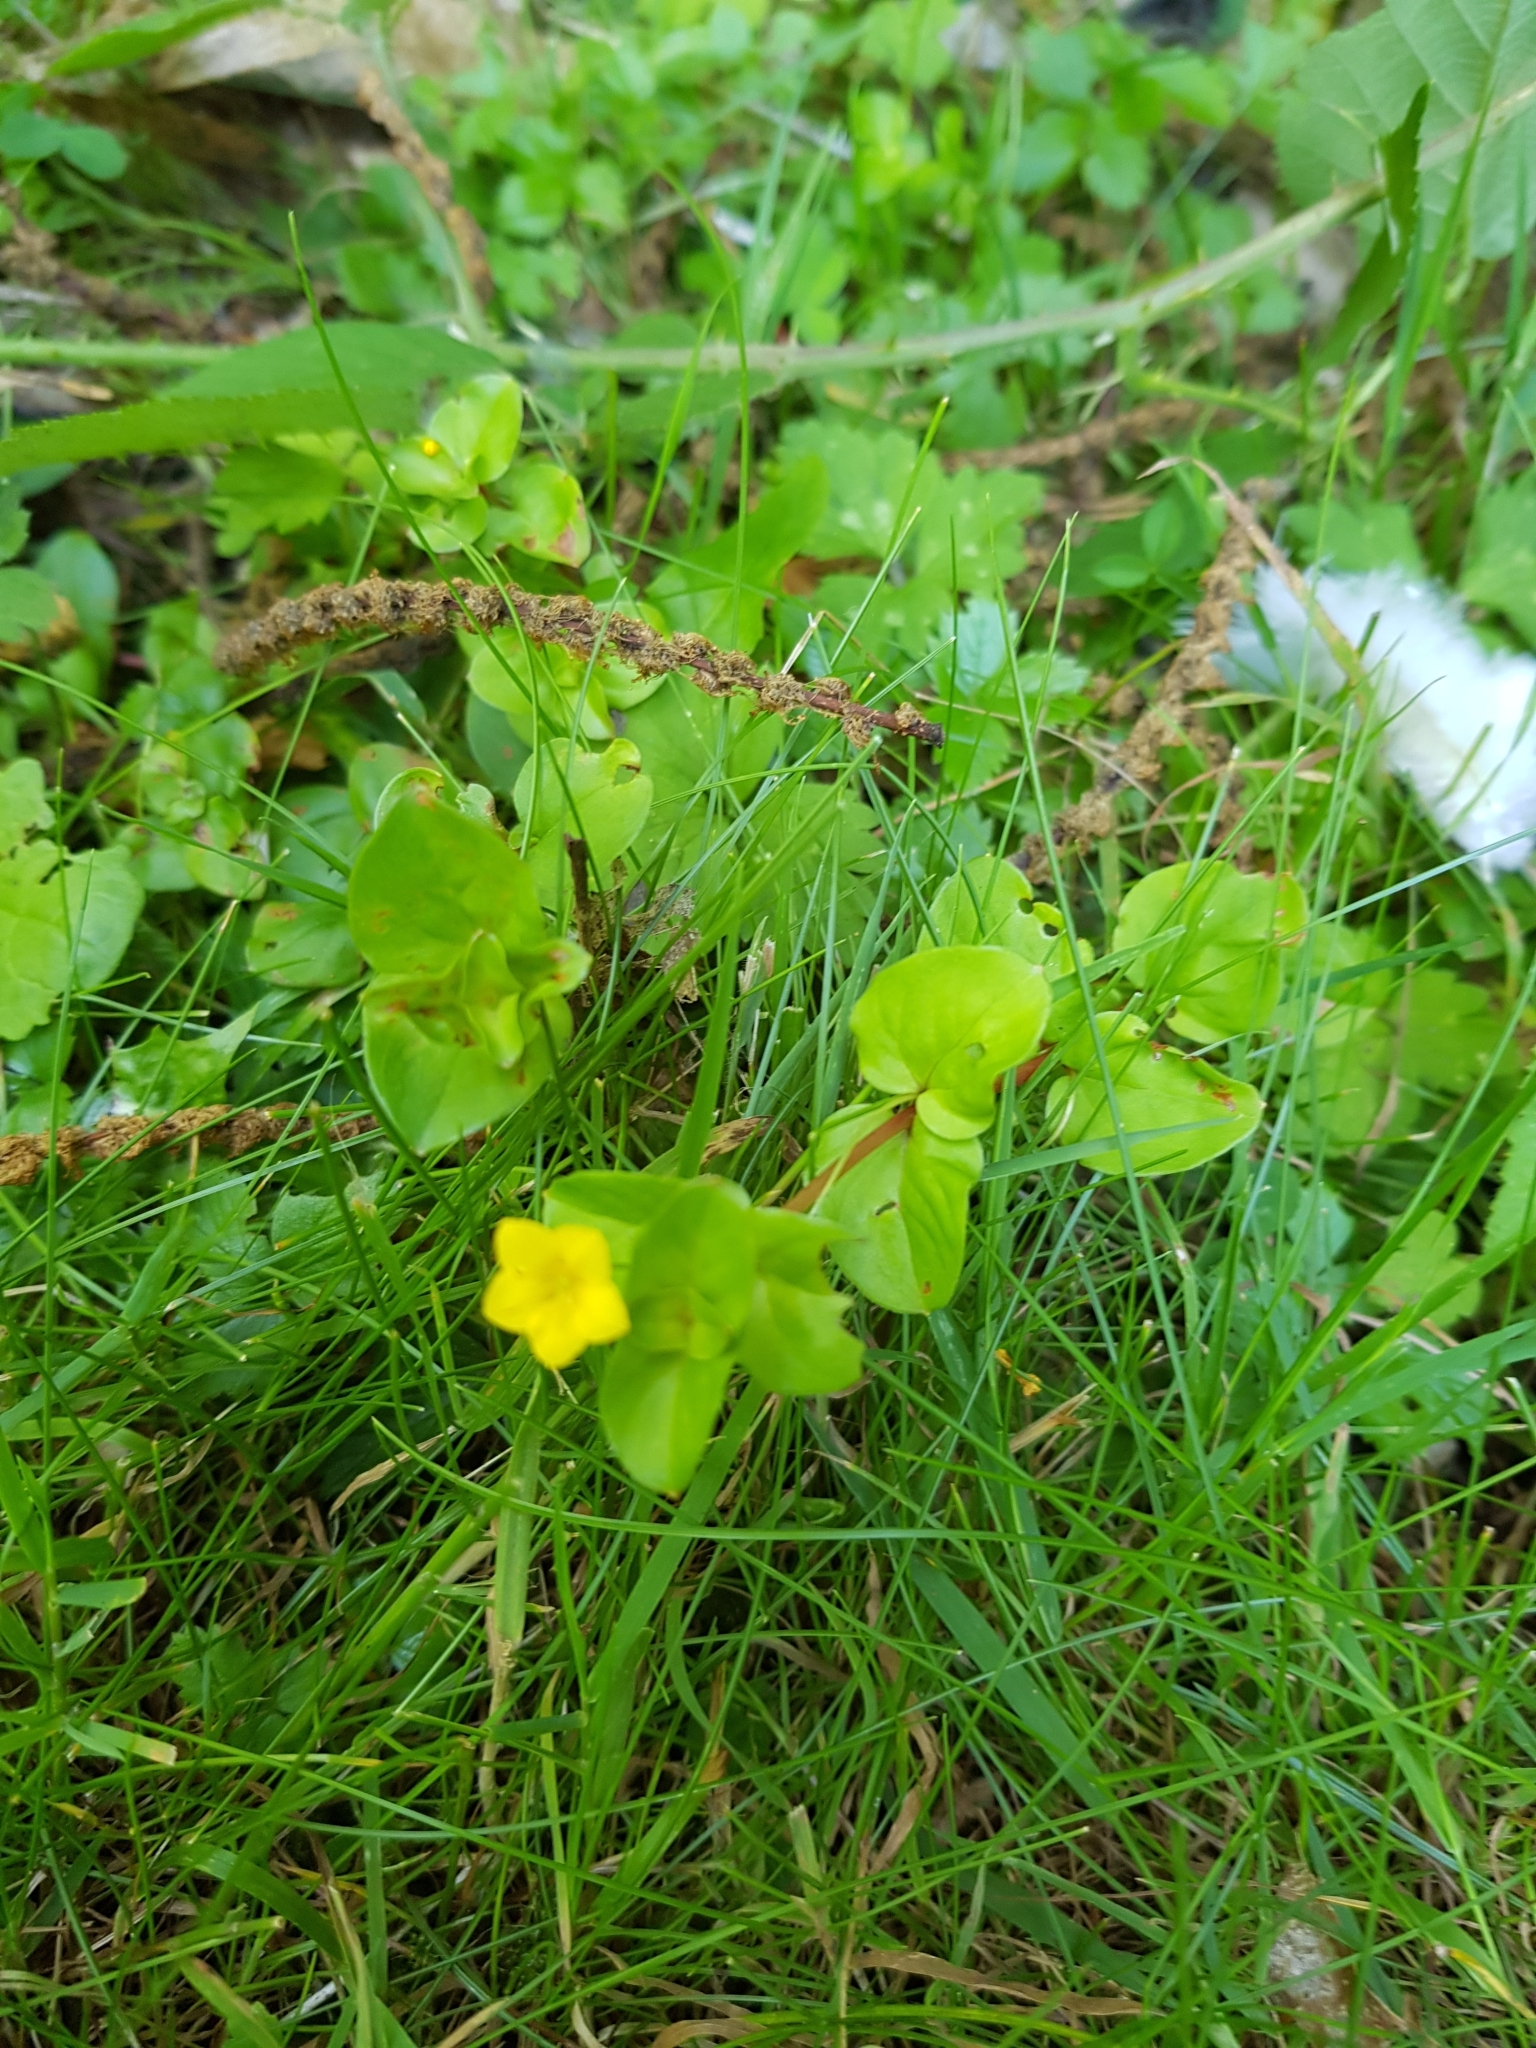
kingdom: Plantae
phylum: Tracheophyta
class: Magnoliopsida
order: Ericales
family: Primulaceae
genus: Lysimachia
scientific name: Lysimachia nemorum
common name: Yellow pimpernel
